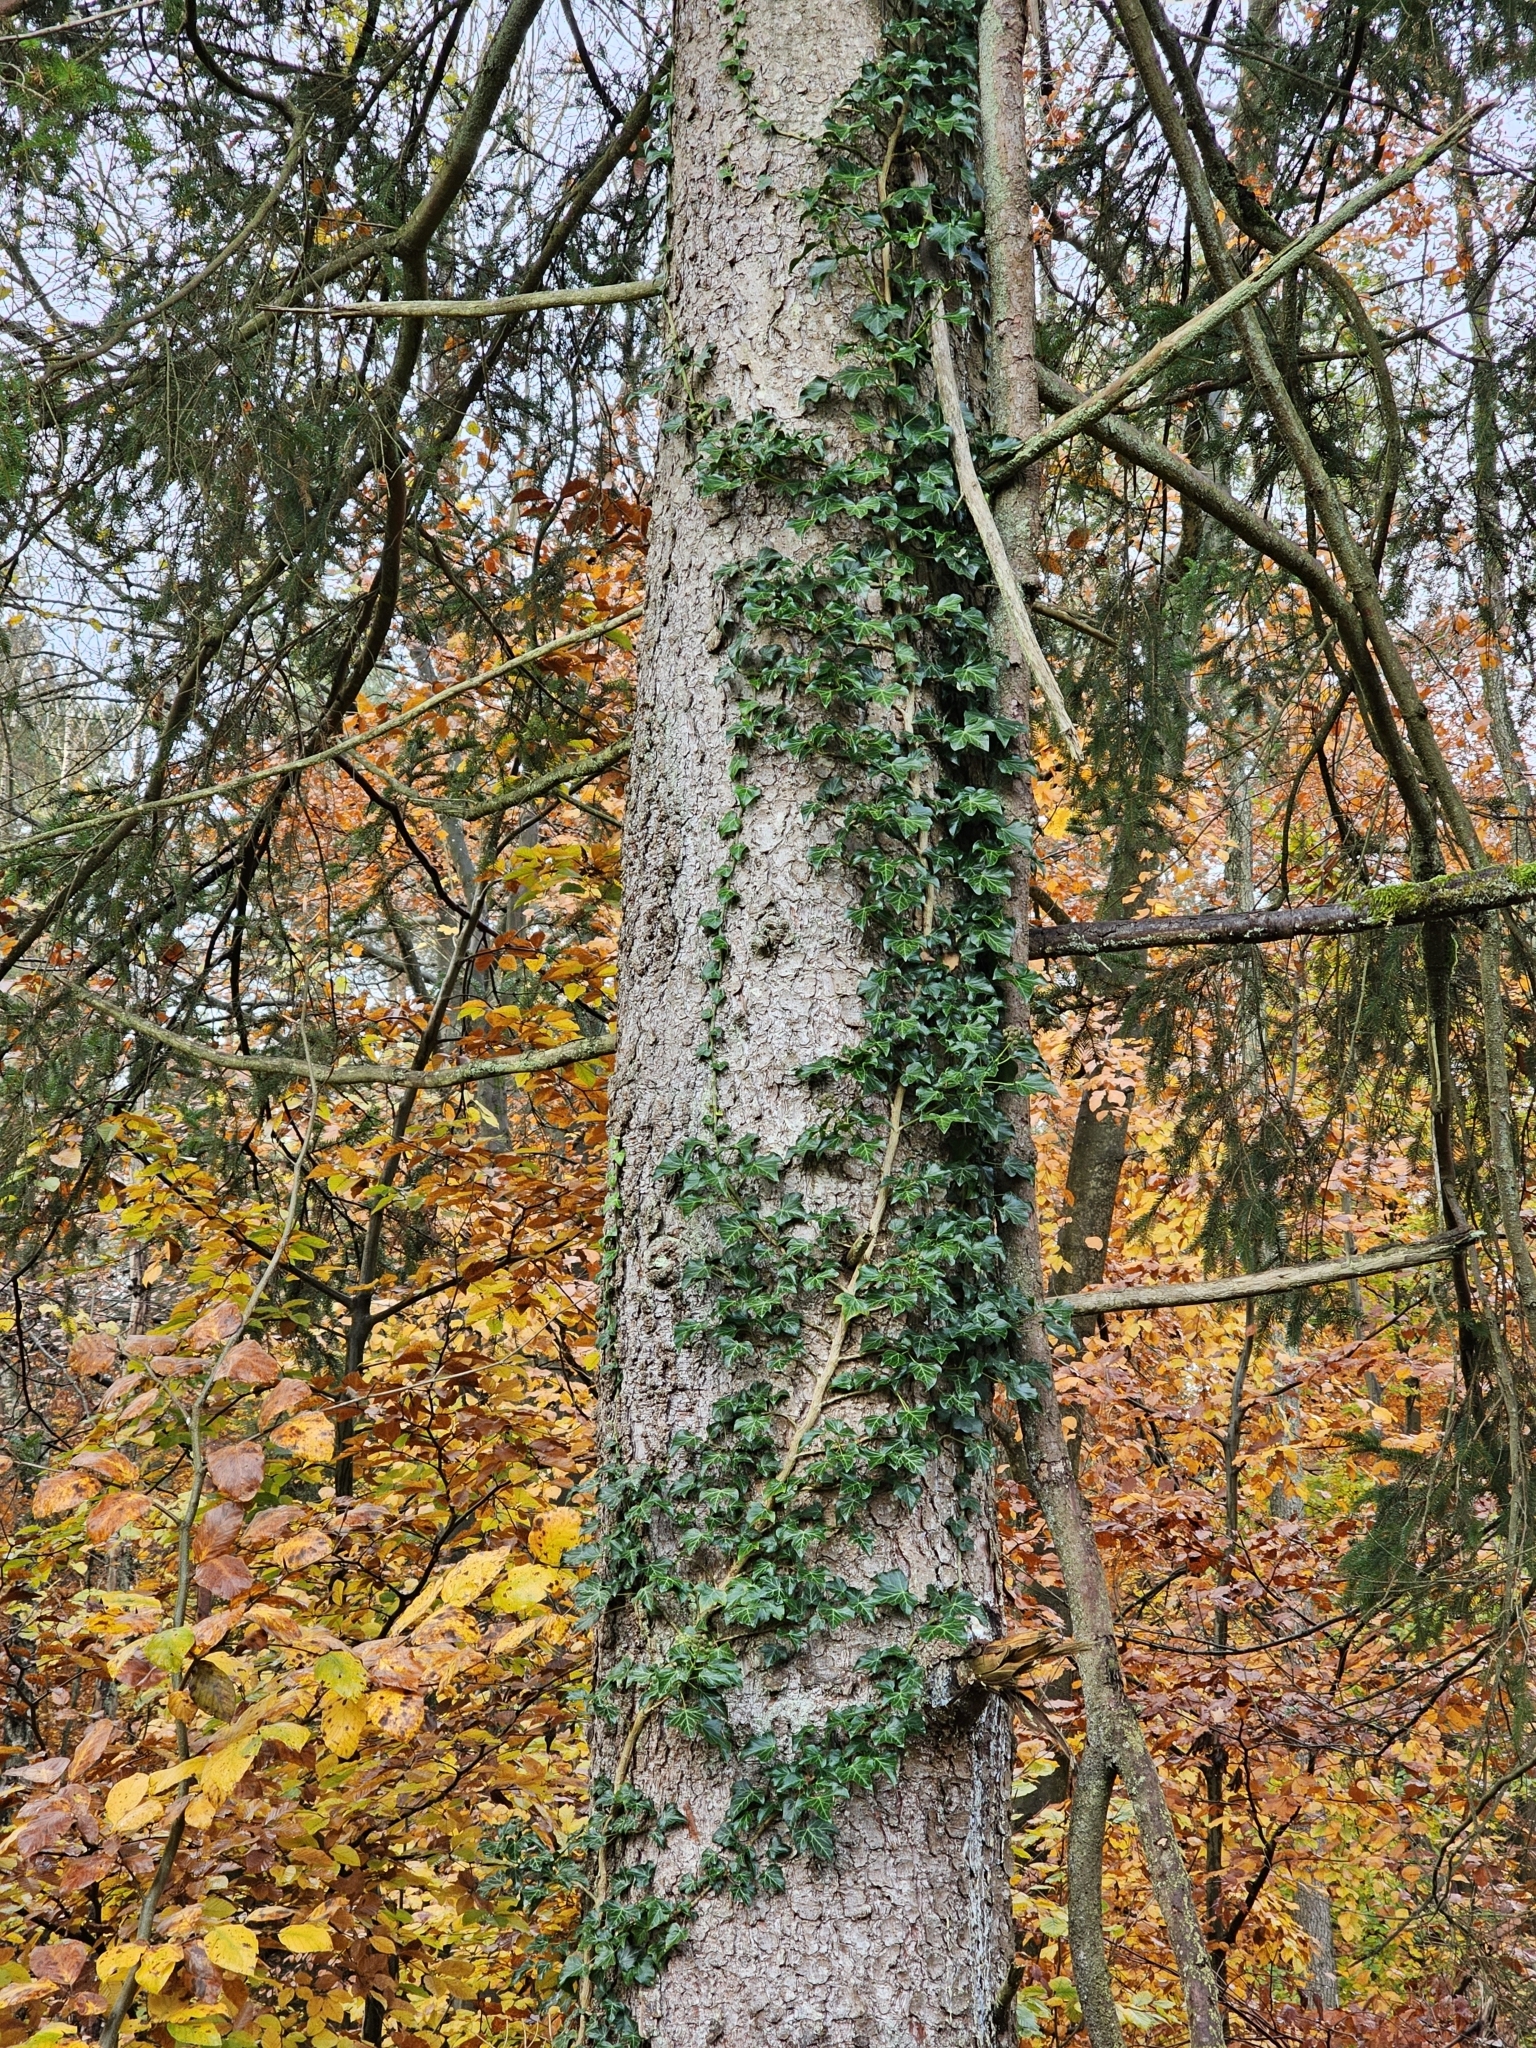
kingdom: Plantae
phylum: Tracheophyta
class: Magnoliopsida
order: Apiales
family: Araliaceae
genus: Hedera
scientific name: Hedera helix
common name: Ivy
